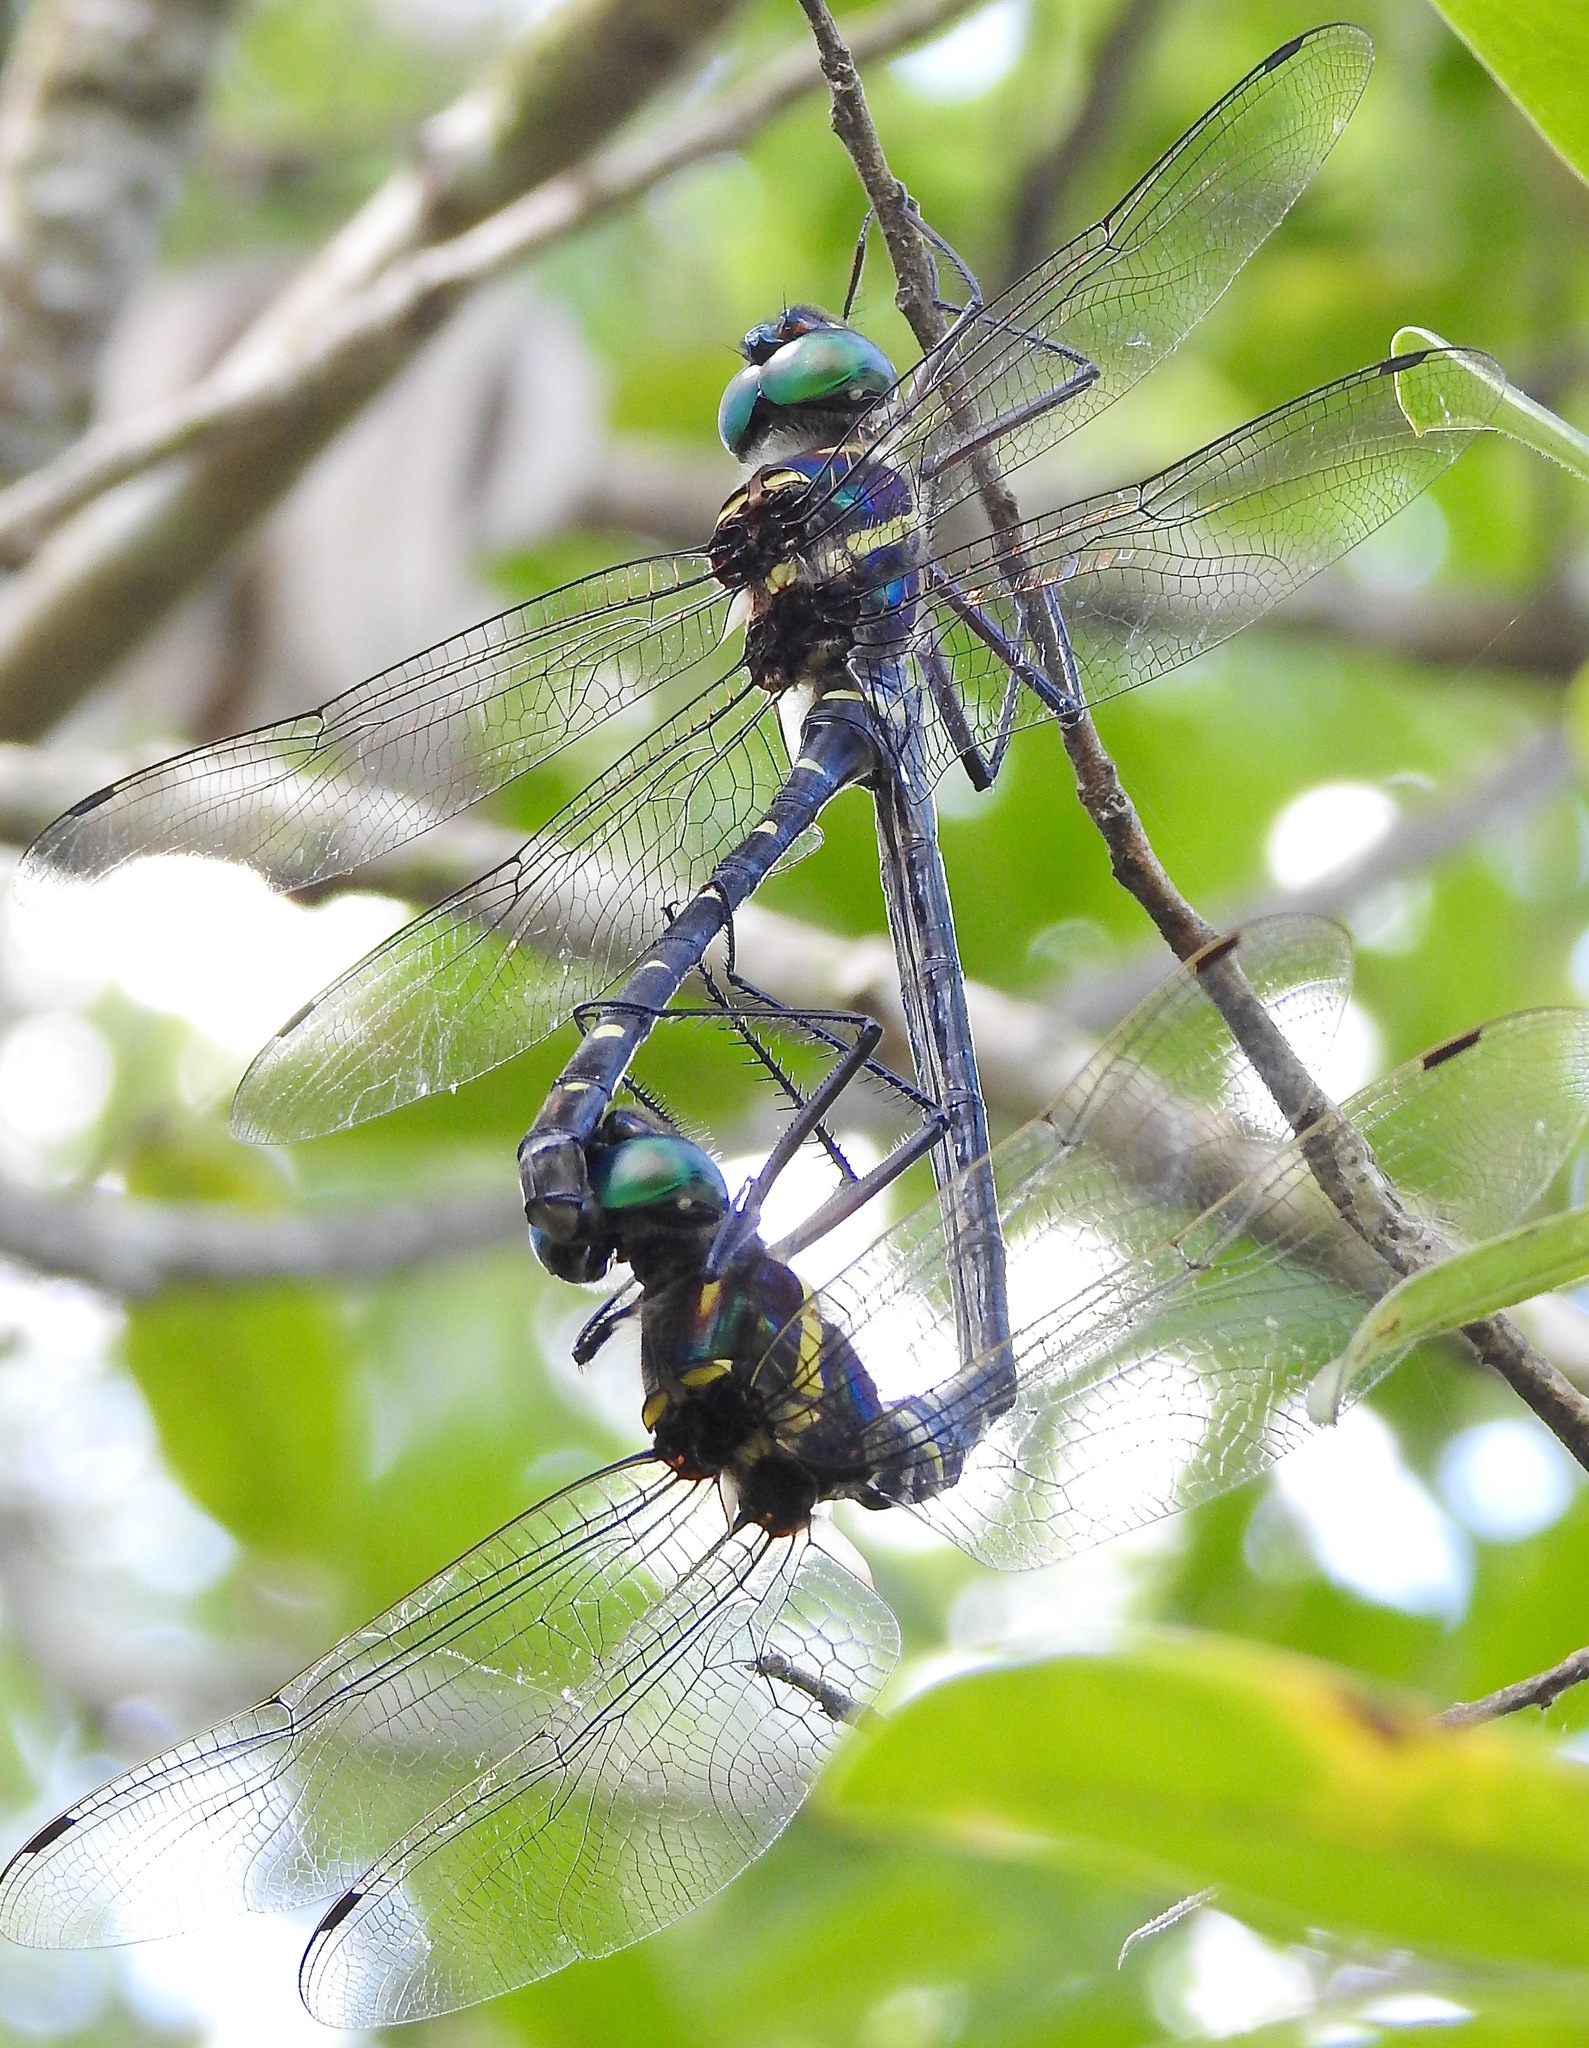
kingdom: Animalia
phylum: Arthropoda
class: Insecta
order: Odonata
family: Macromiidae
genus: Macromia
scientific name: Macromia taeniolata
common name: Royal river cruiser
